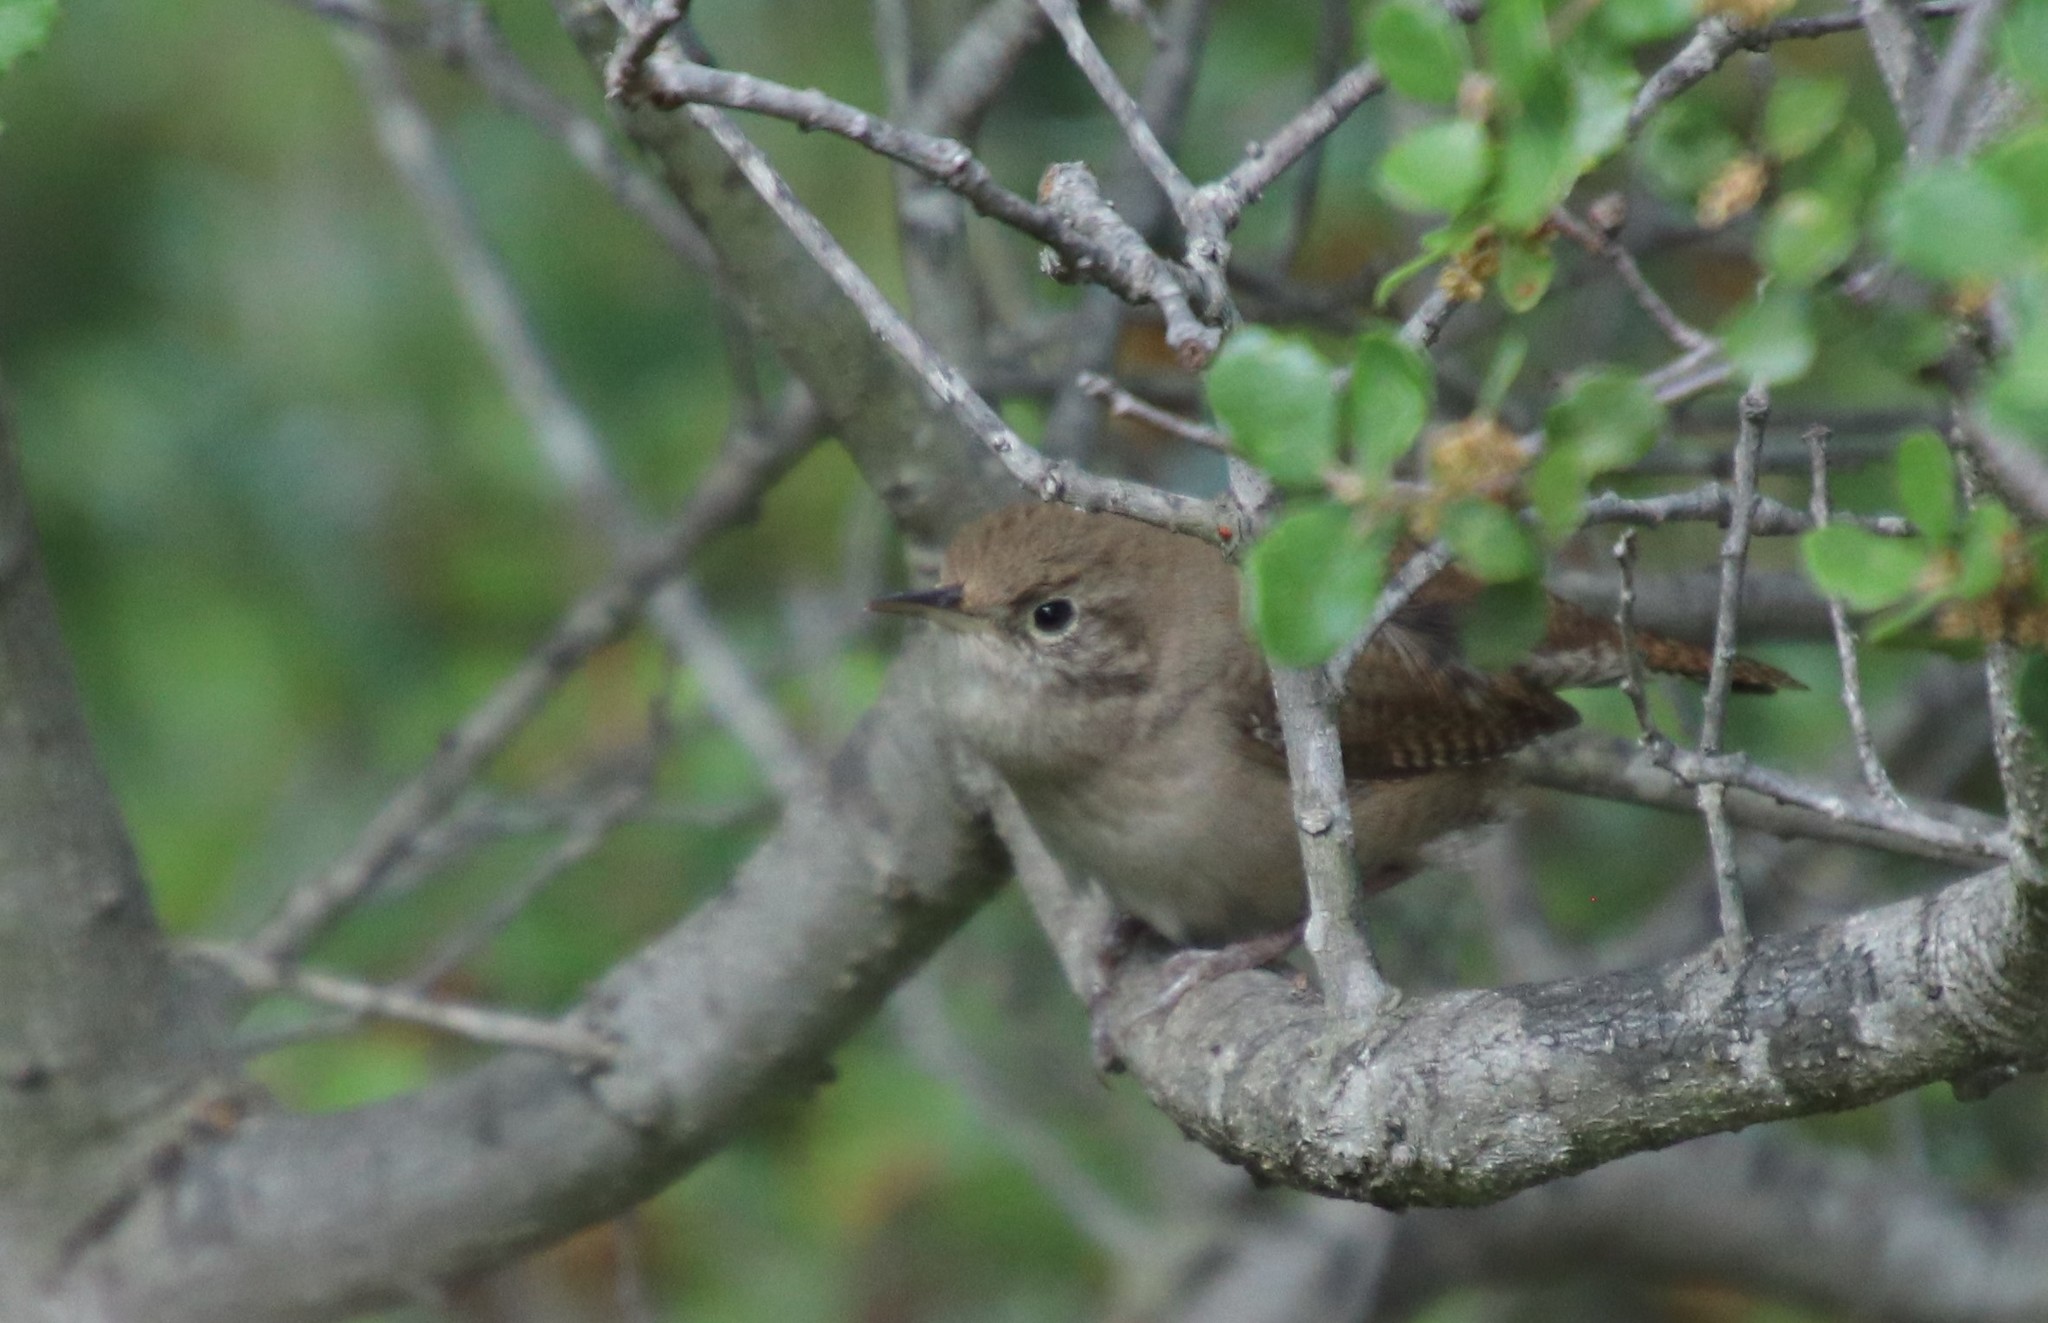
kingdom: Animalia
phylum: Chordata
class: Aves
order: Passeriformes
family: Troglodytidae
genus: Troglodytes
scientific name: Troglodytes aedon
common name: House wren
